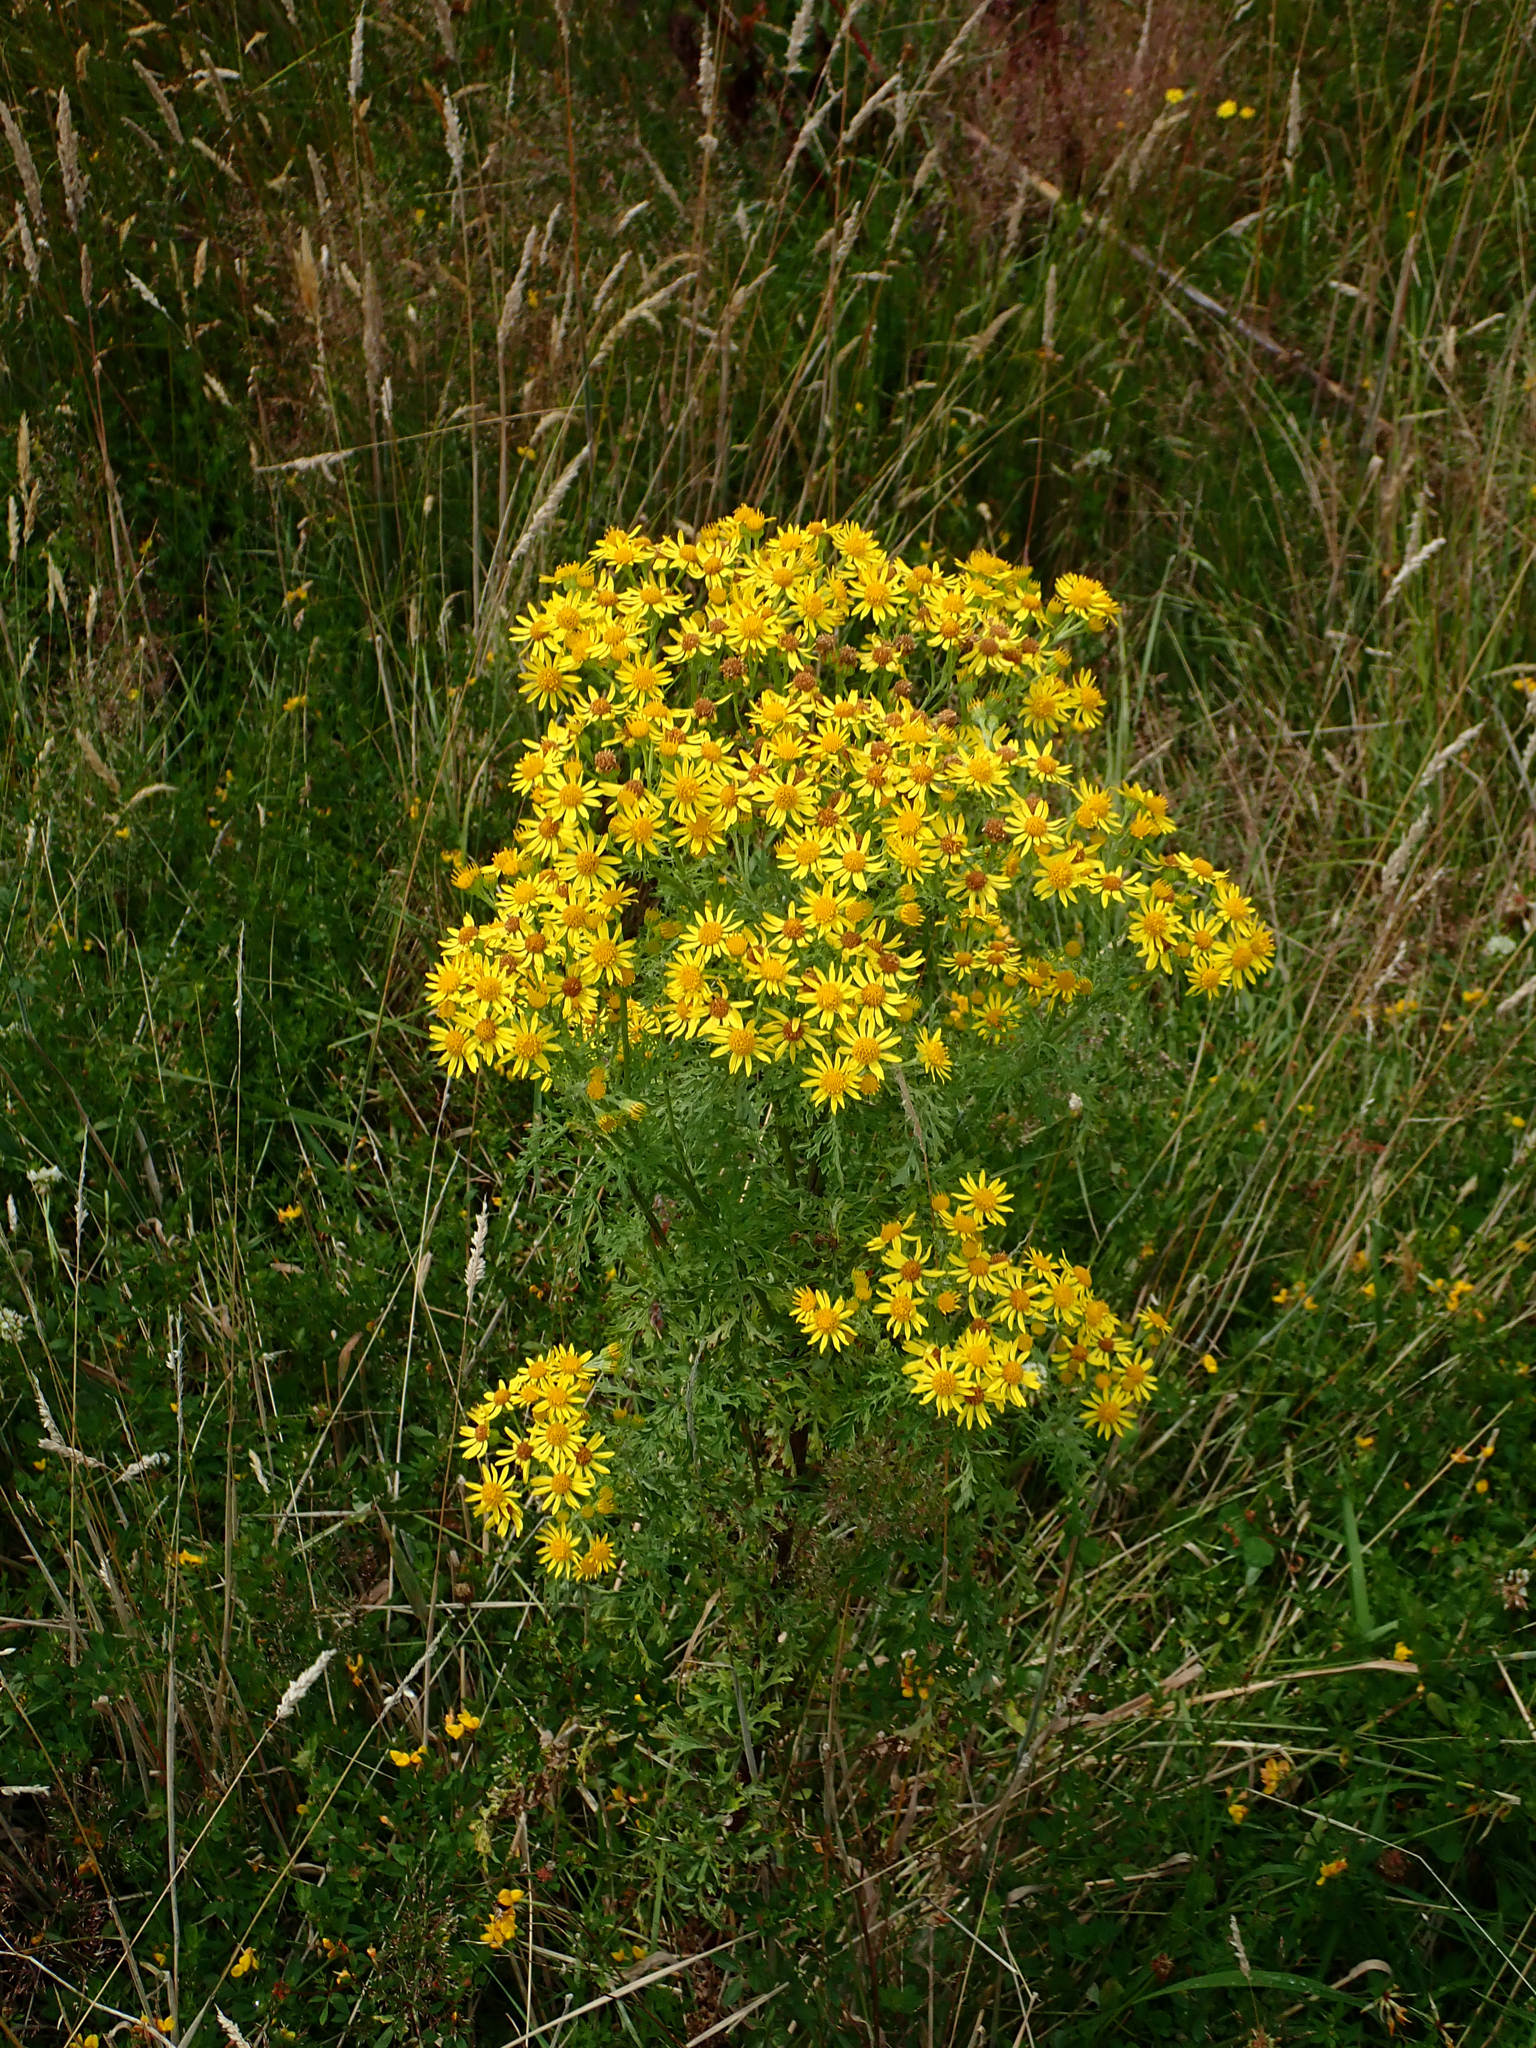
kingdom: Plantae
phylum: Tracheophyta
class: Magnoliopsida
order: Asterales
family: Asteraceae
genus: Jacobaea
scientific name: Jacobaea vulgaris
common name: Stinking willie
